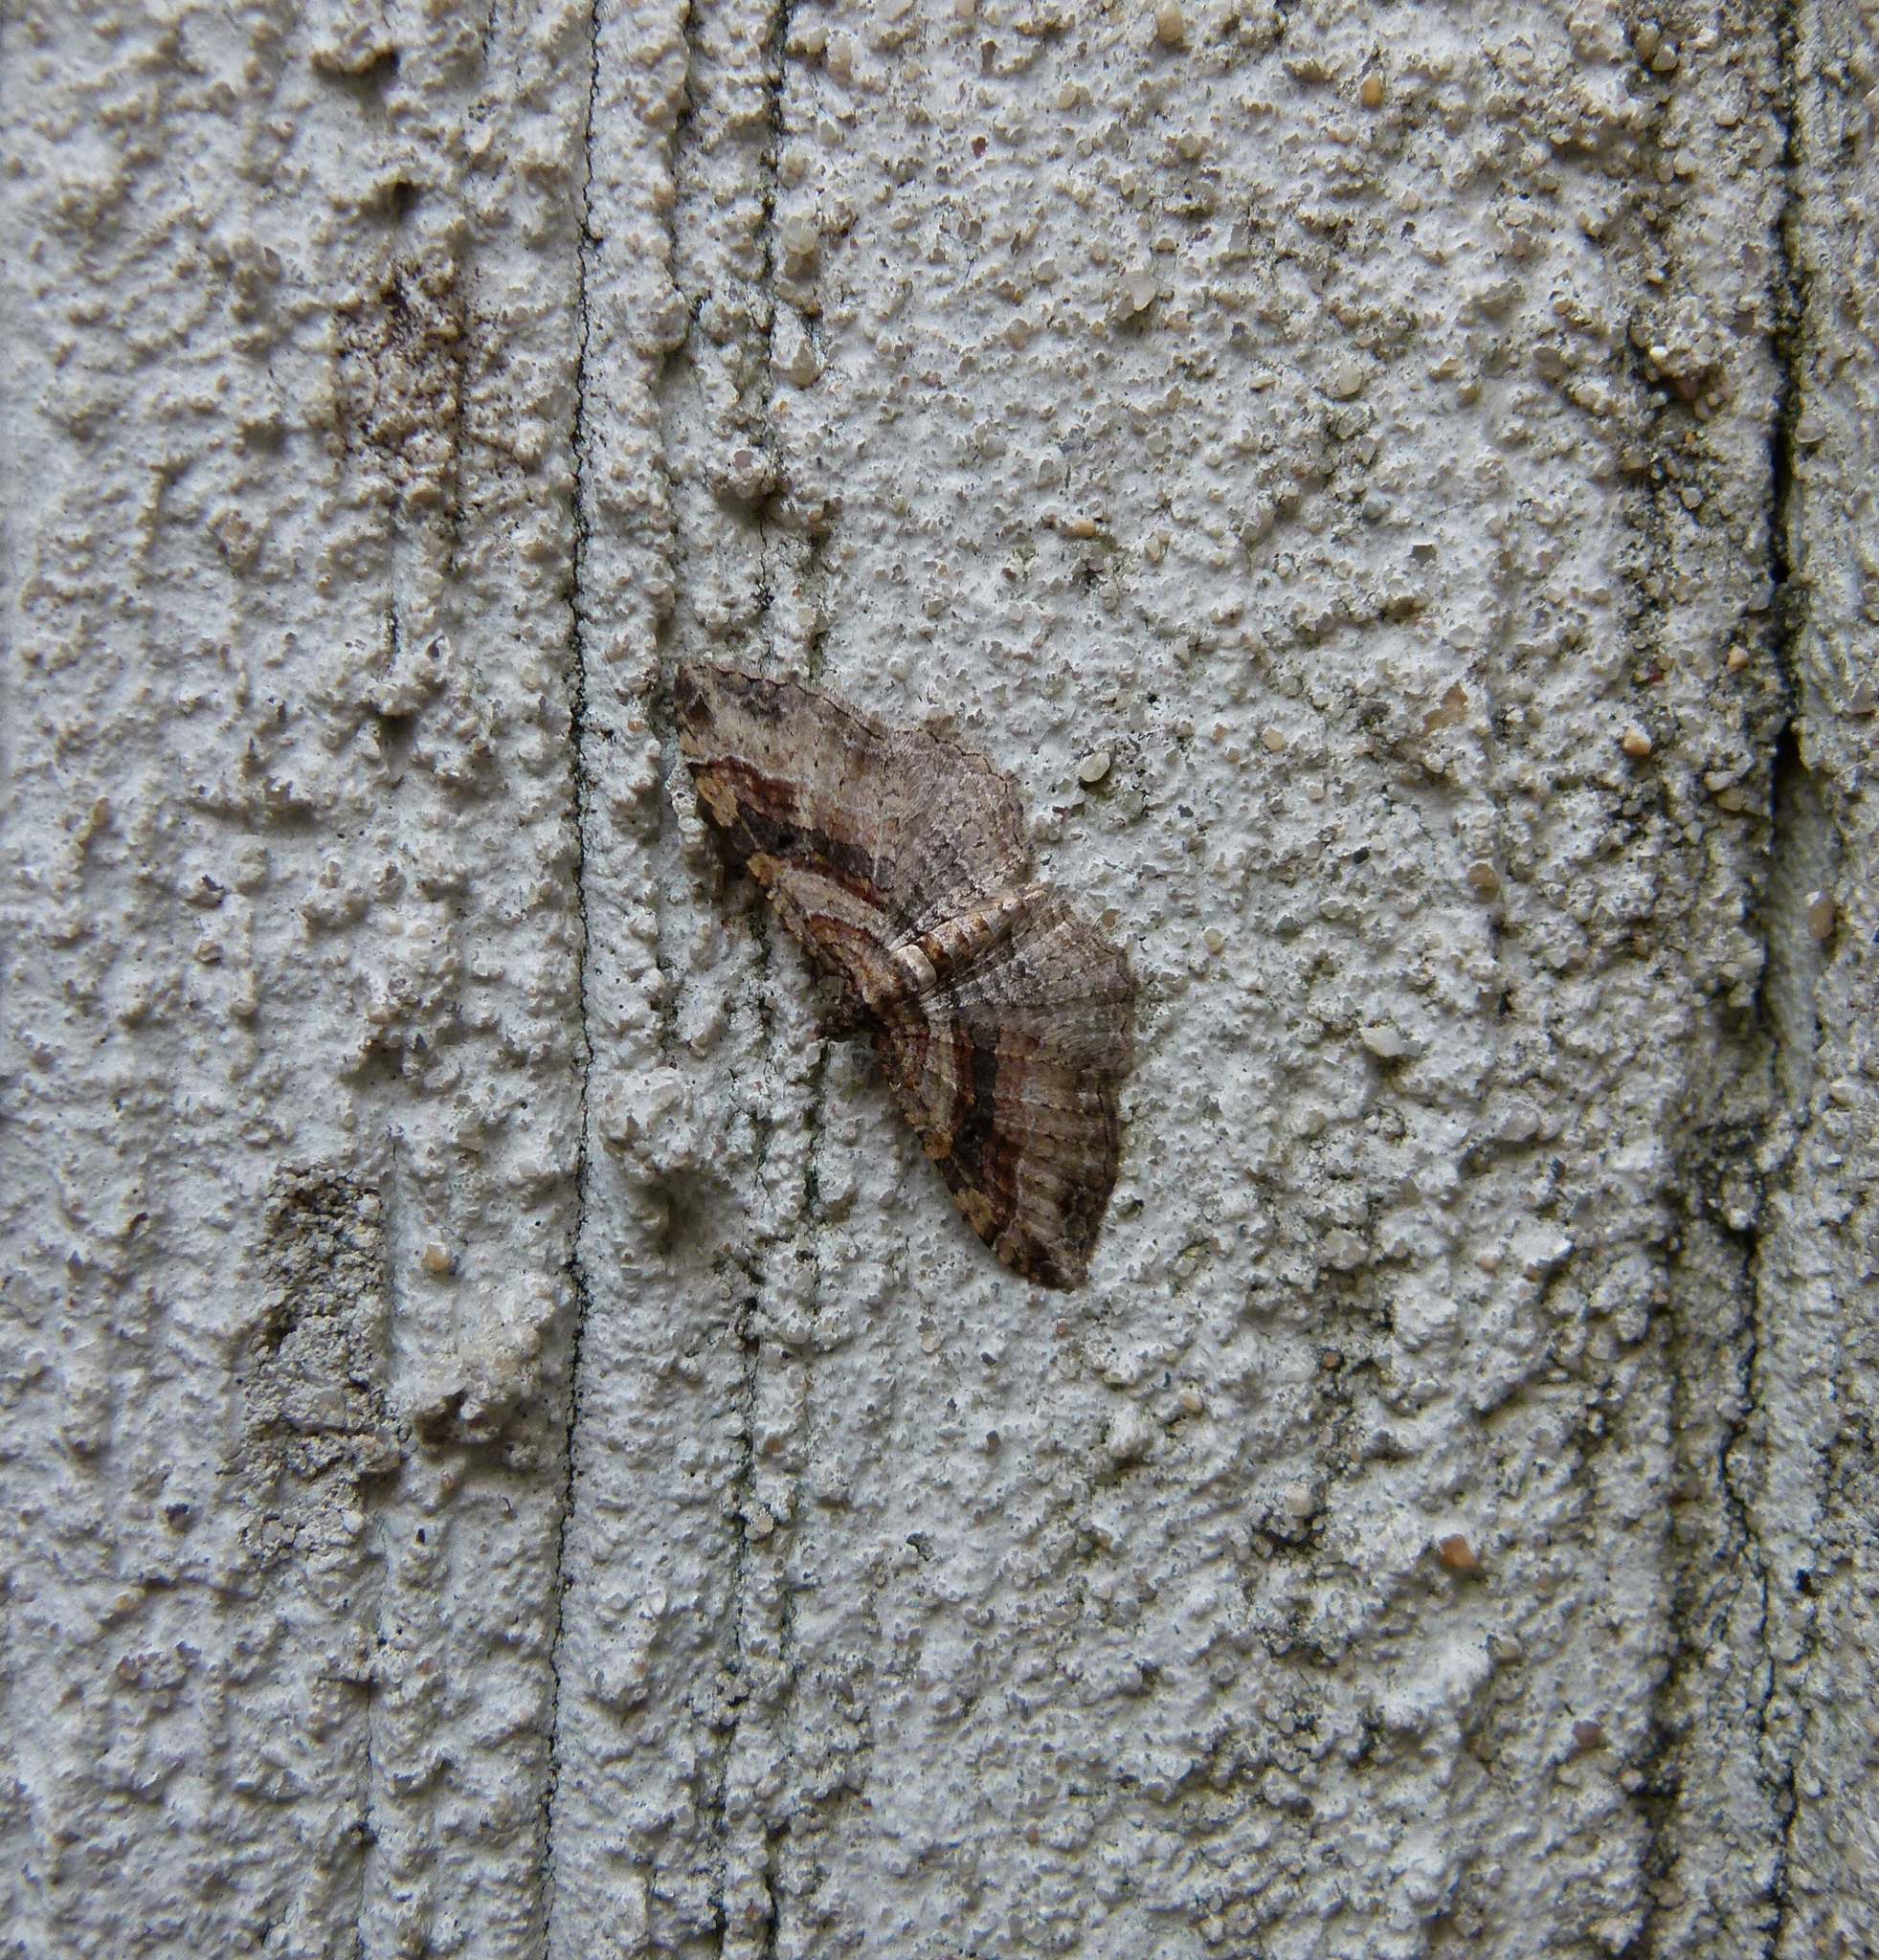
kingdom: Animalia
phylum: Arthropoda
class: Insecta
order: Lepidoptera
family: Geometridae
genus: Costaconvexa
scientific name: Costaconvexa centrostrigaria
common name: Bent-line carpet
